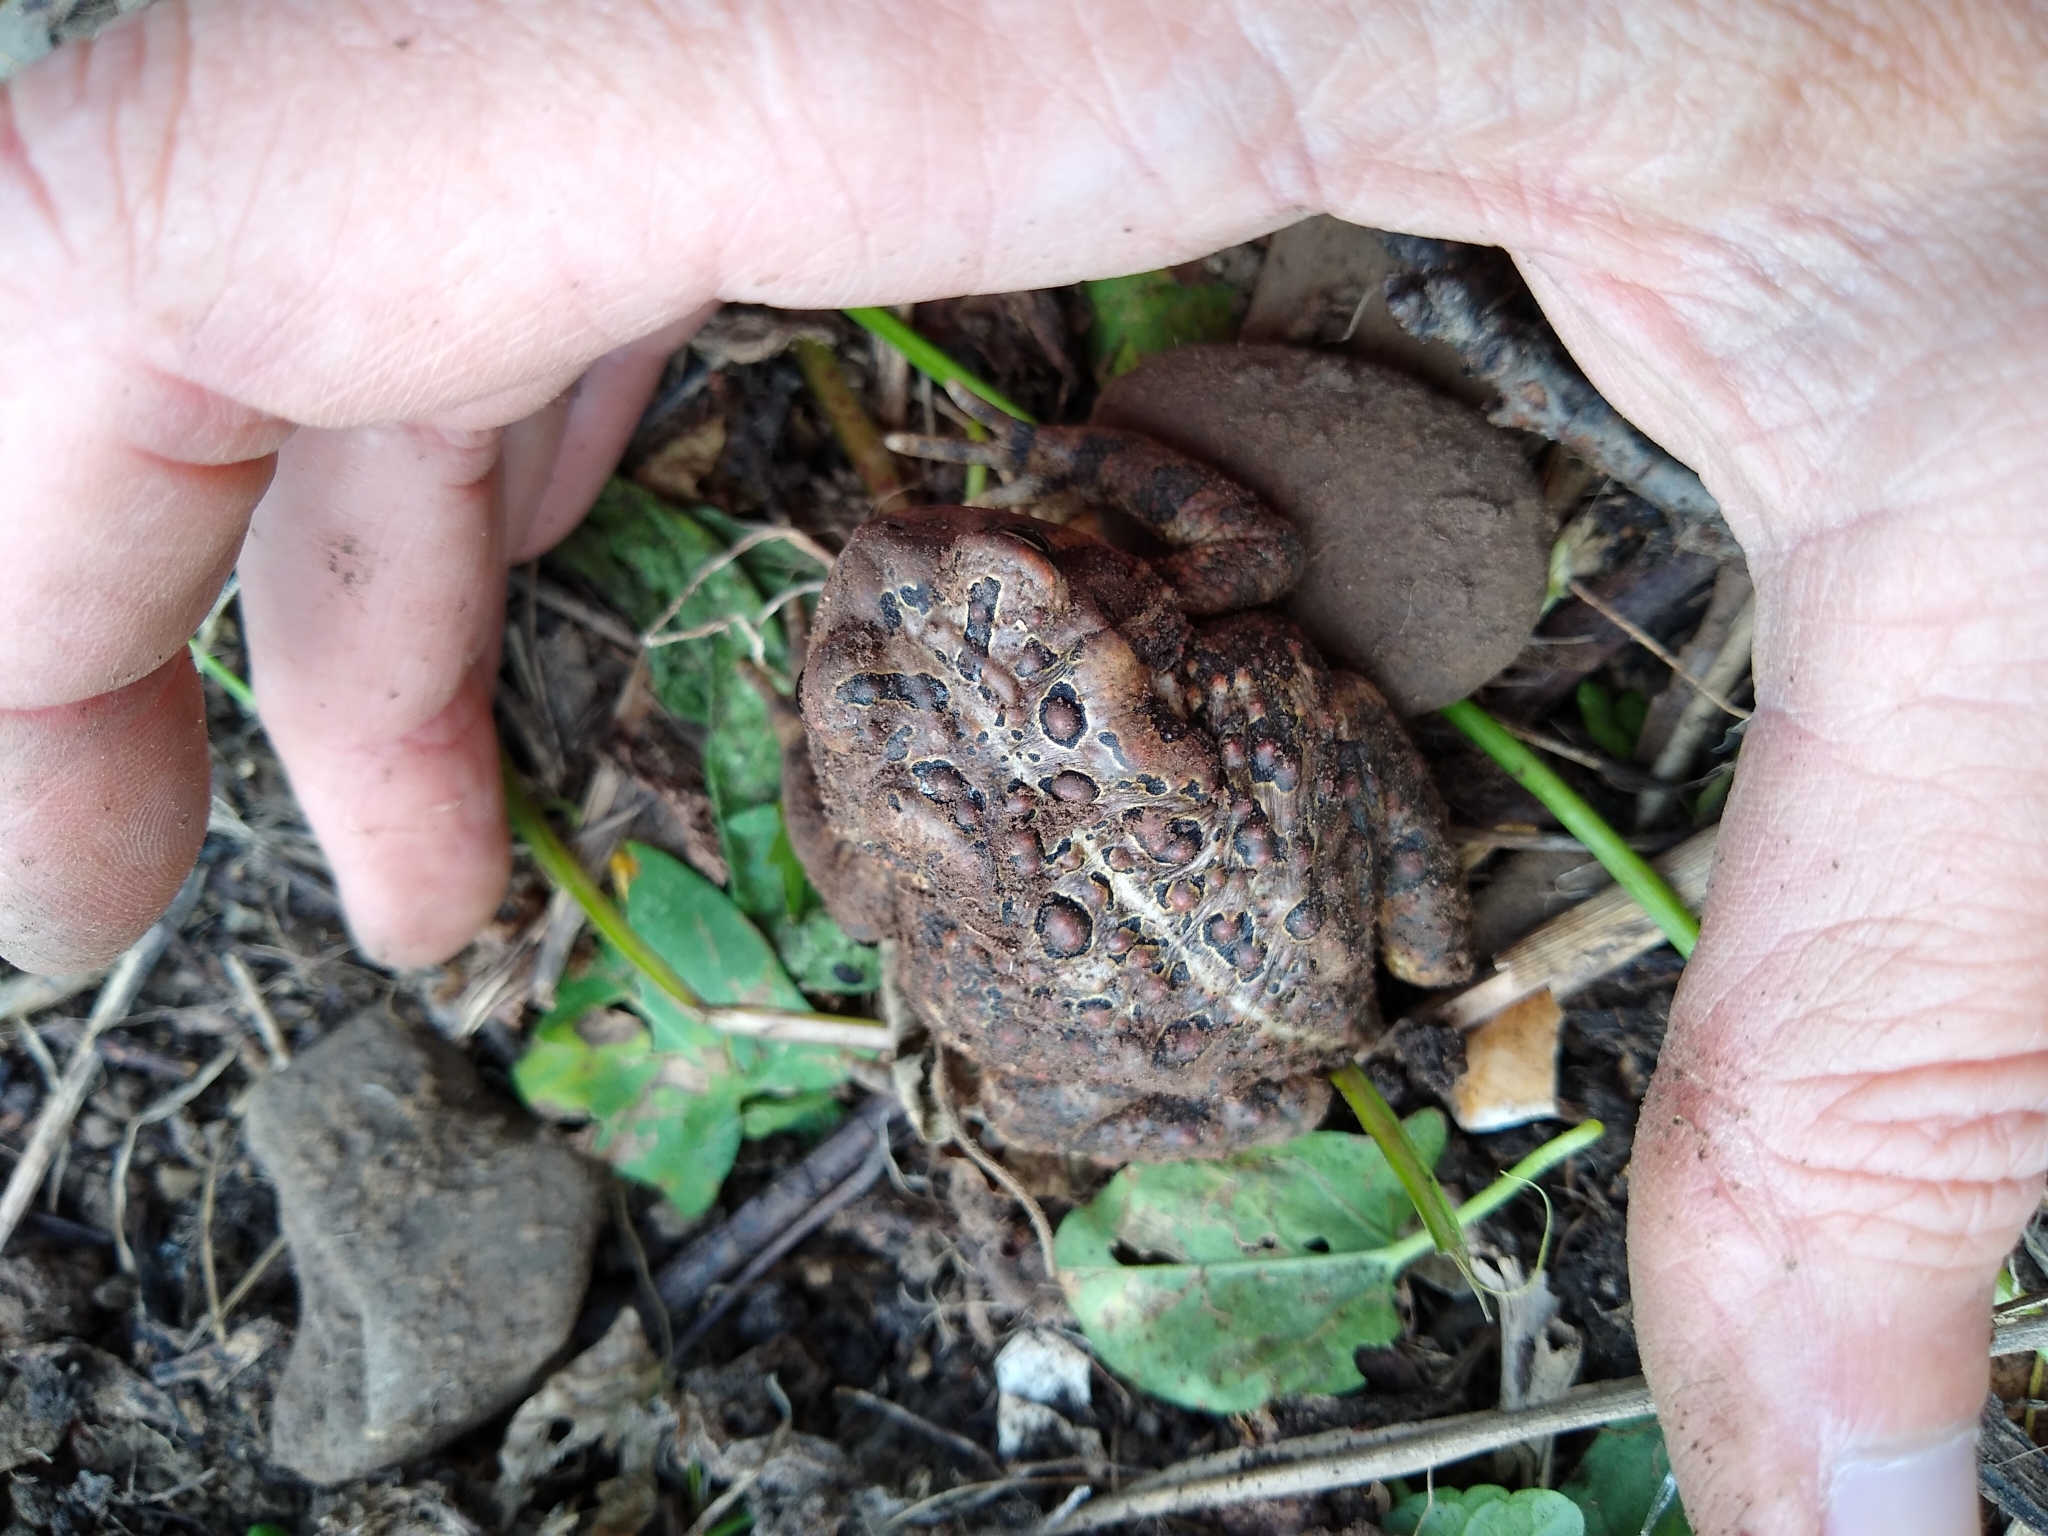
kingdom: Animalia
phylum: Chordata
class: Amphibia
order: Anura
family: Bufonidae
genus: Anaxyrus
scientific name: Anaxyrus americanus
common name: American toad
